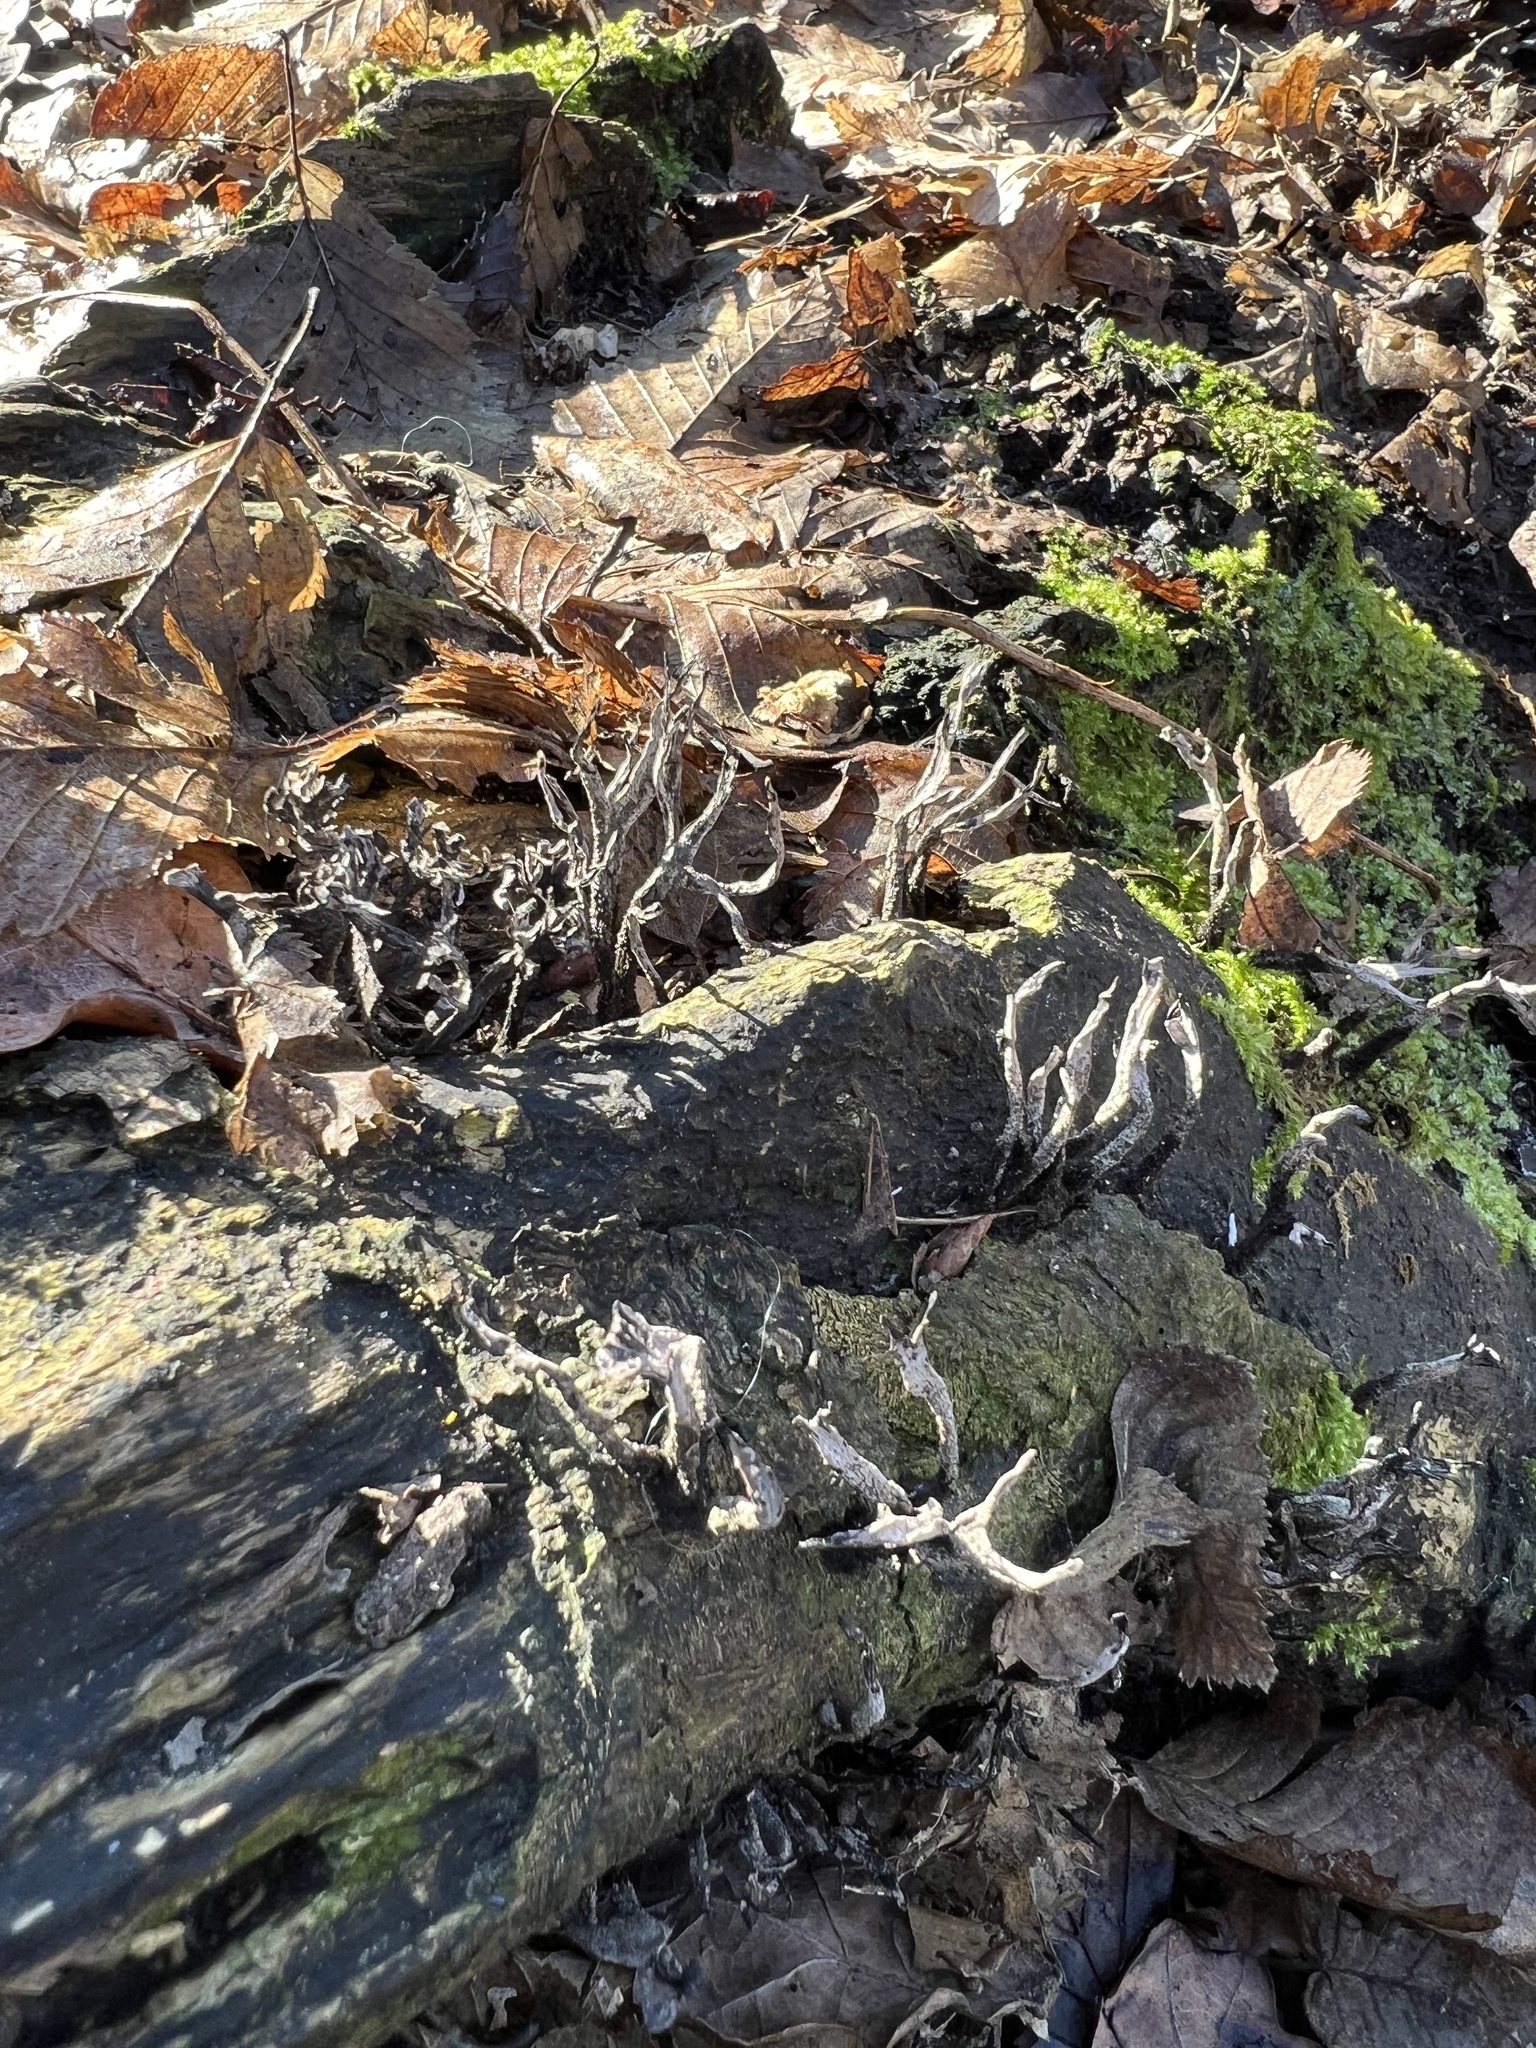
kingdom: Fungi
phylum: Ascomycota
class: Sordariomycetes
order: Xylariales
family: Xylariaceae
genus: Xylaria
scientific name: Xylaria hypoxylon
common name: Candle-snuff fungus
